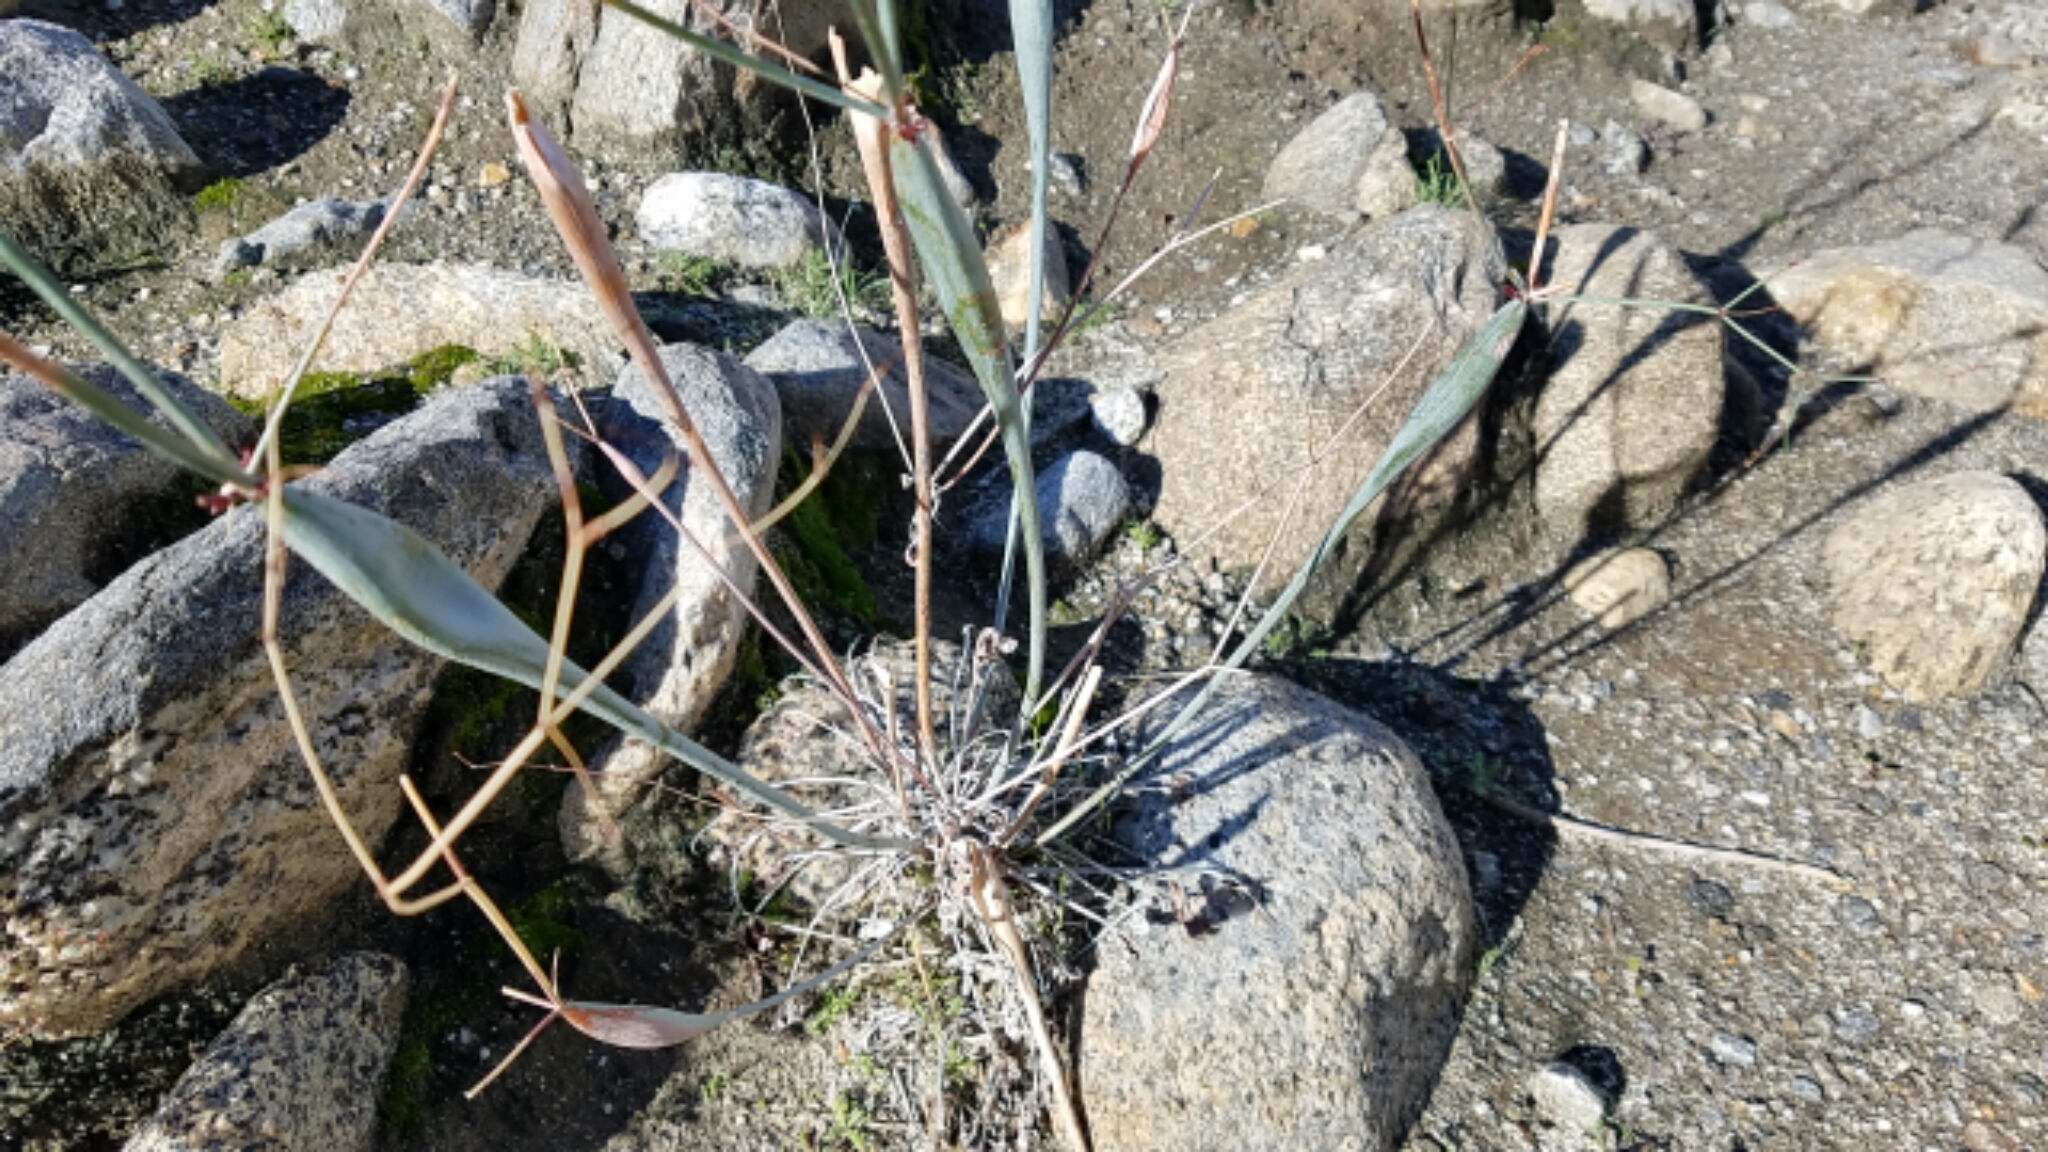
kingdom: Plantae
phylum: Tracheophyta
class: Magnoliopsida
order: Caryophyllales
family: Polygonaceae
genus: Eriogonum
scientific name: Eriogonum inflatum
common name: Desert trumpet
